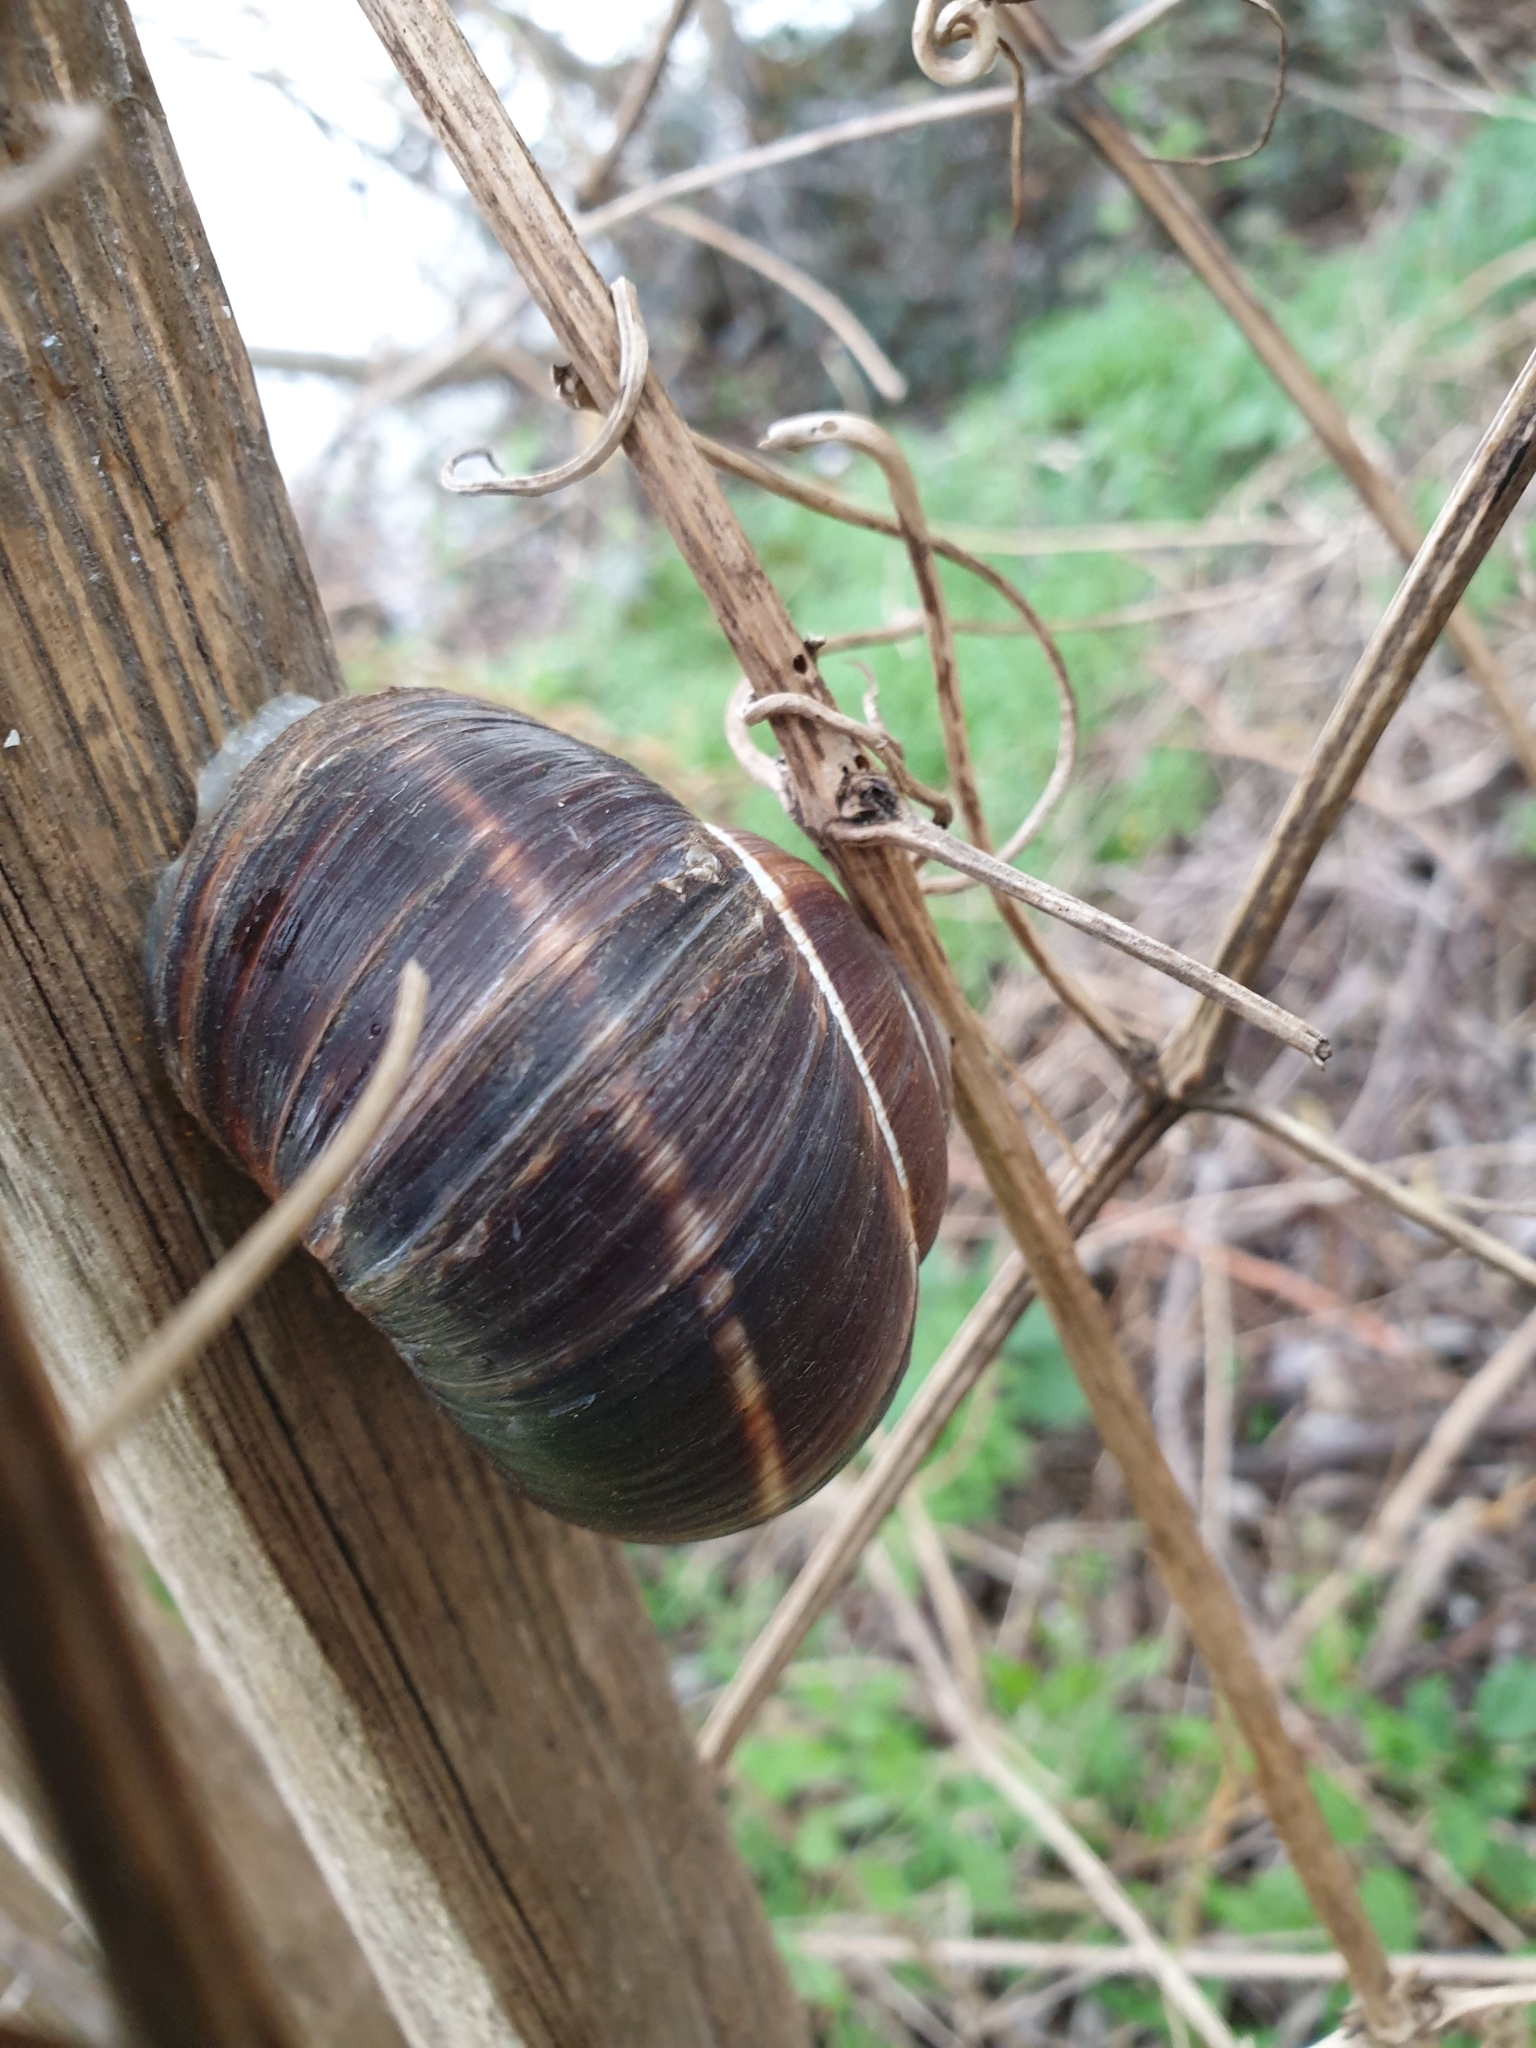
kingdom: Animalia
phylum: Mollusca
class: Gastropoda
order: Stylommatophora
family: Helicidae
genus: Helix
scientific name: Helix lucorum
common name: Turkish snail
